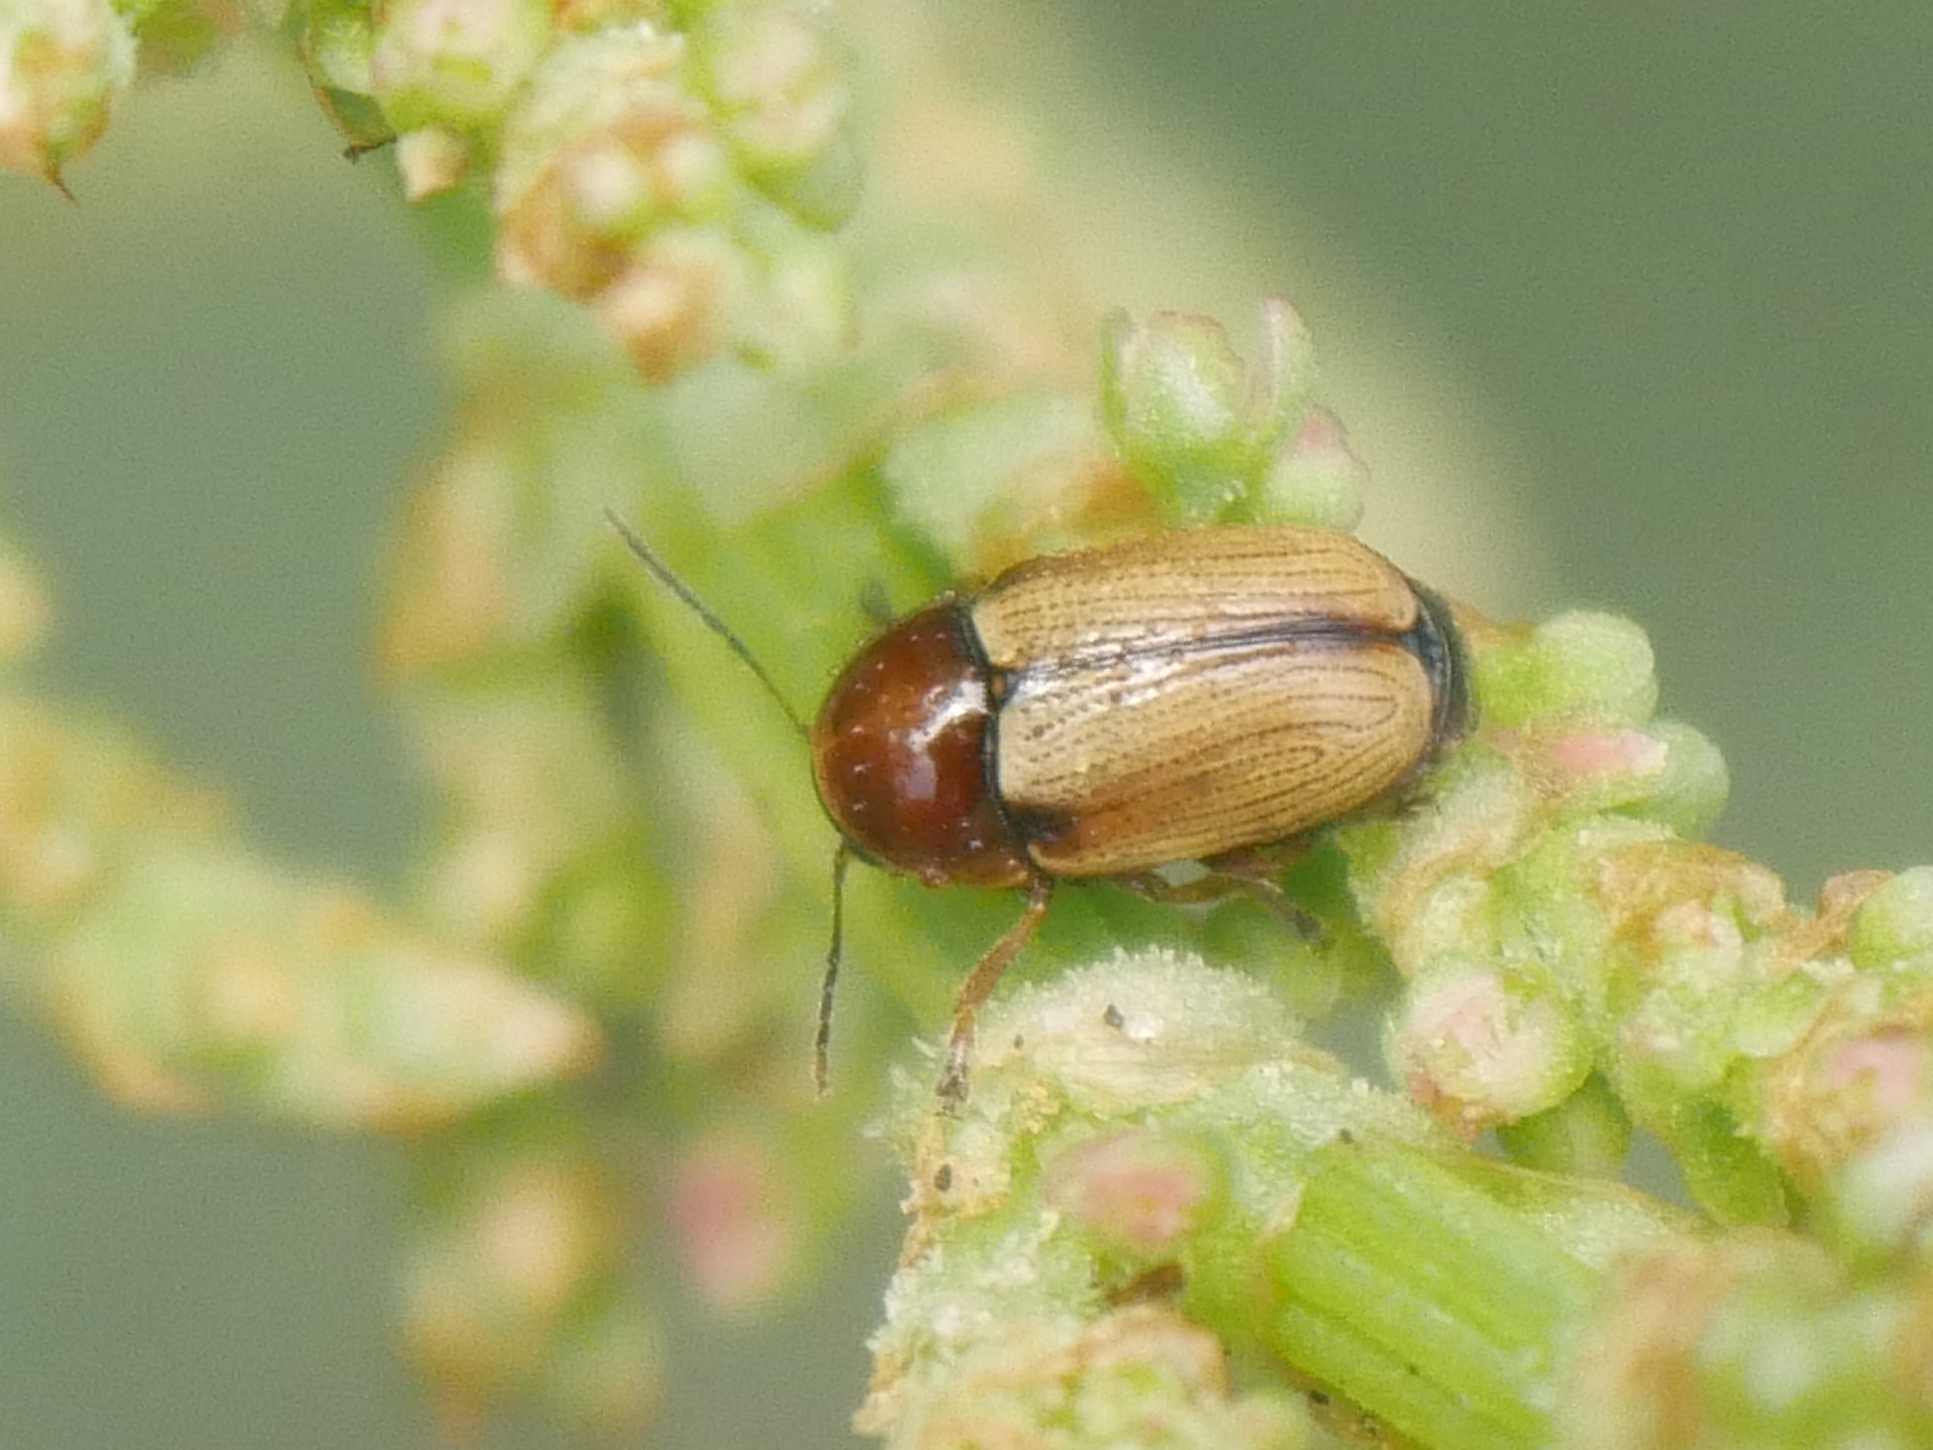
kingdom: Animalia
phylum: Arthropoda
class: Insecta
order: Coleoptera
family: Chrysomelidae
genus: Cryptocephalus
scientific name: Cryptocephalus fulvus
